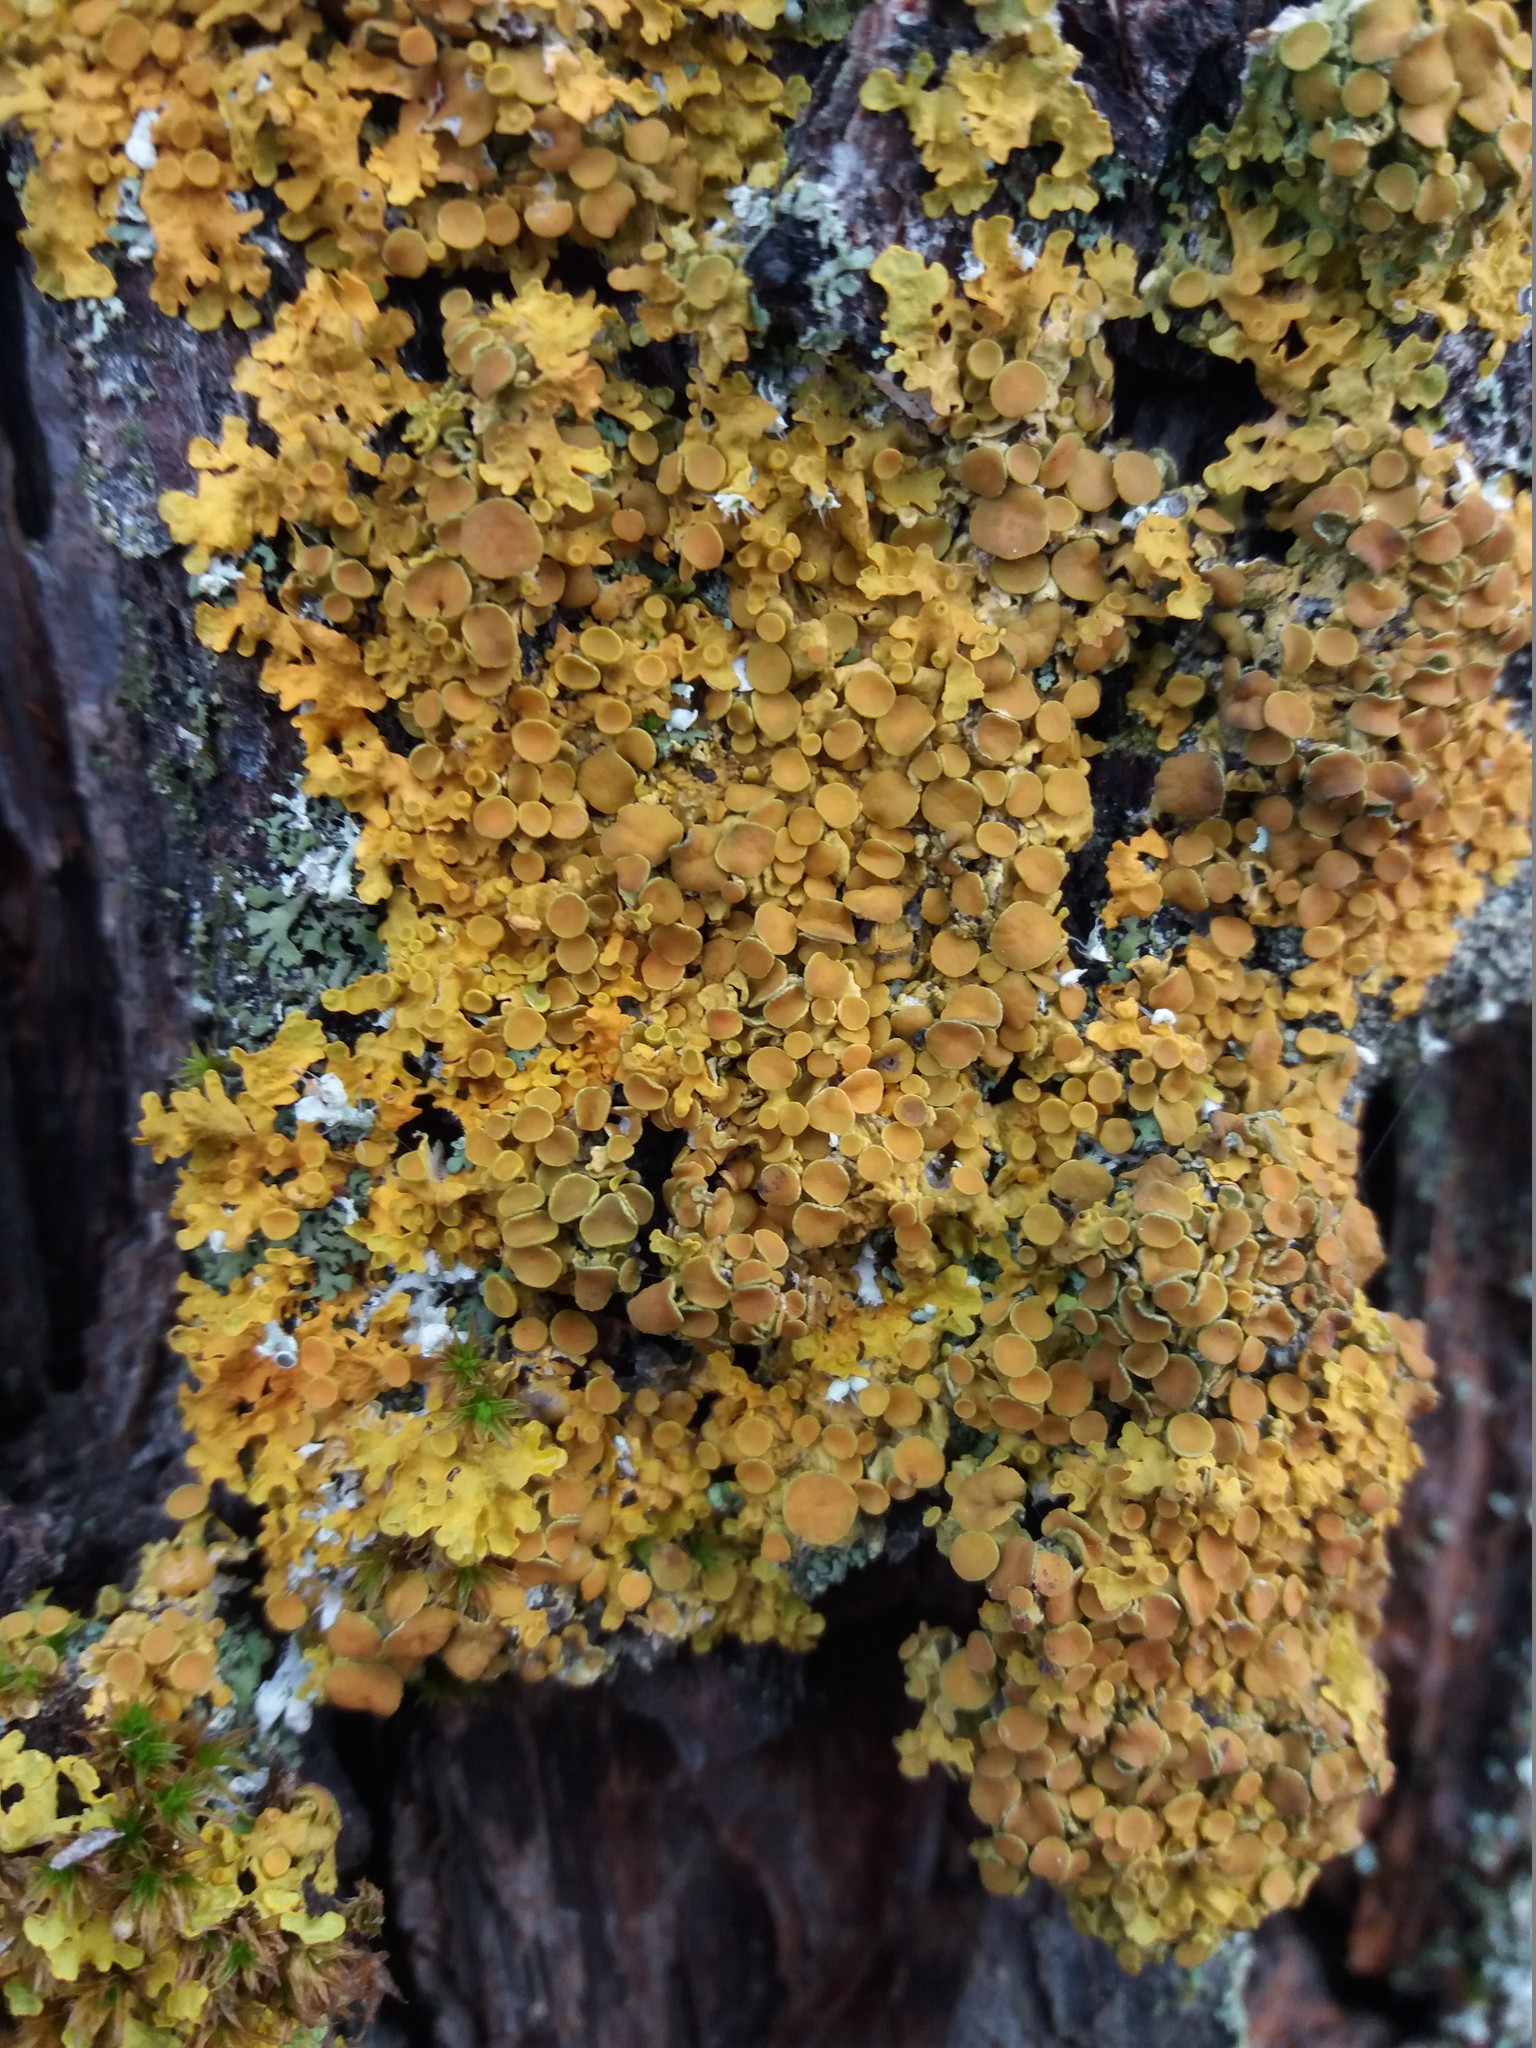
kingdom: Fungi
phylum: Ascomycota
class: Lecanoromycetes
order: Teloschistales
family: Teloschistaceae
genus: Xanthoria
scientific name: Xanthoria parietina
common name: Common orange lichen
